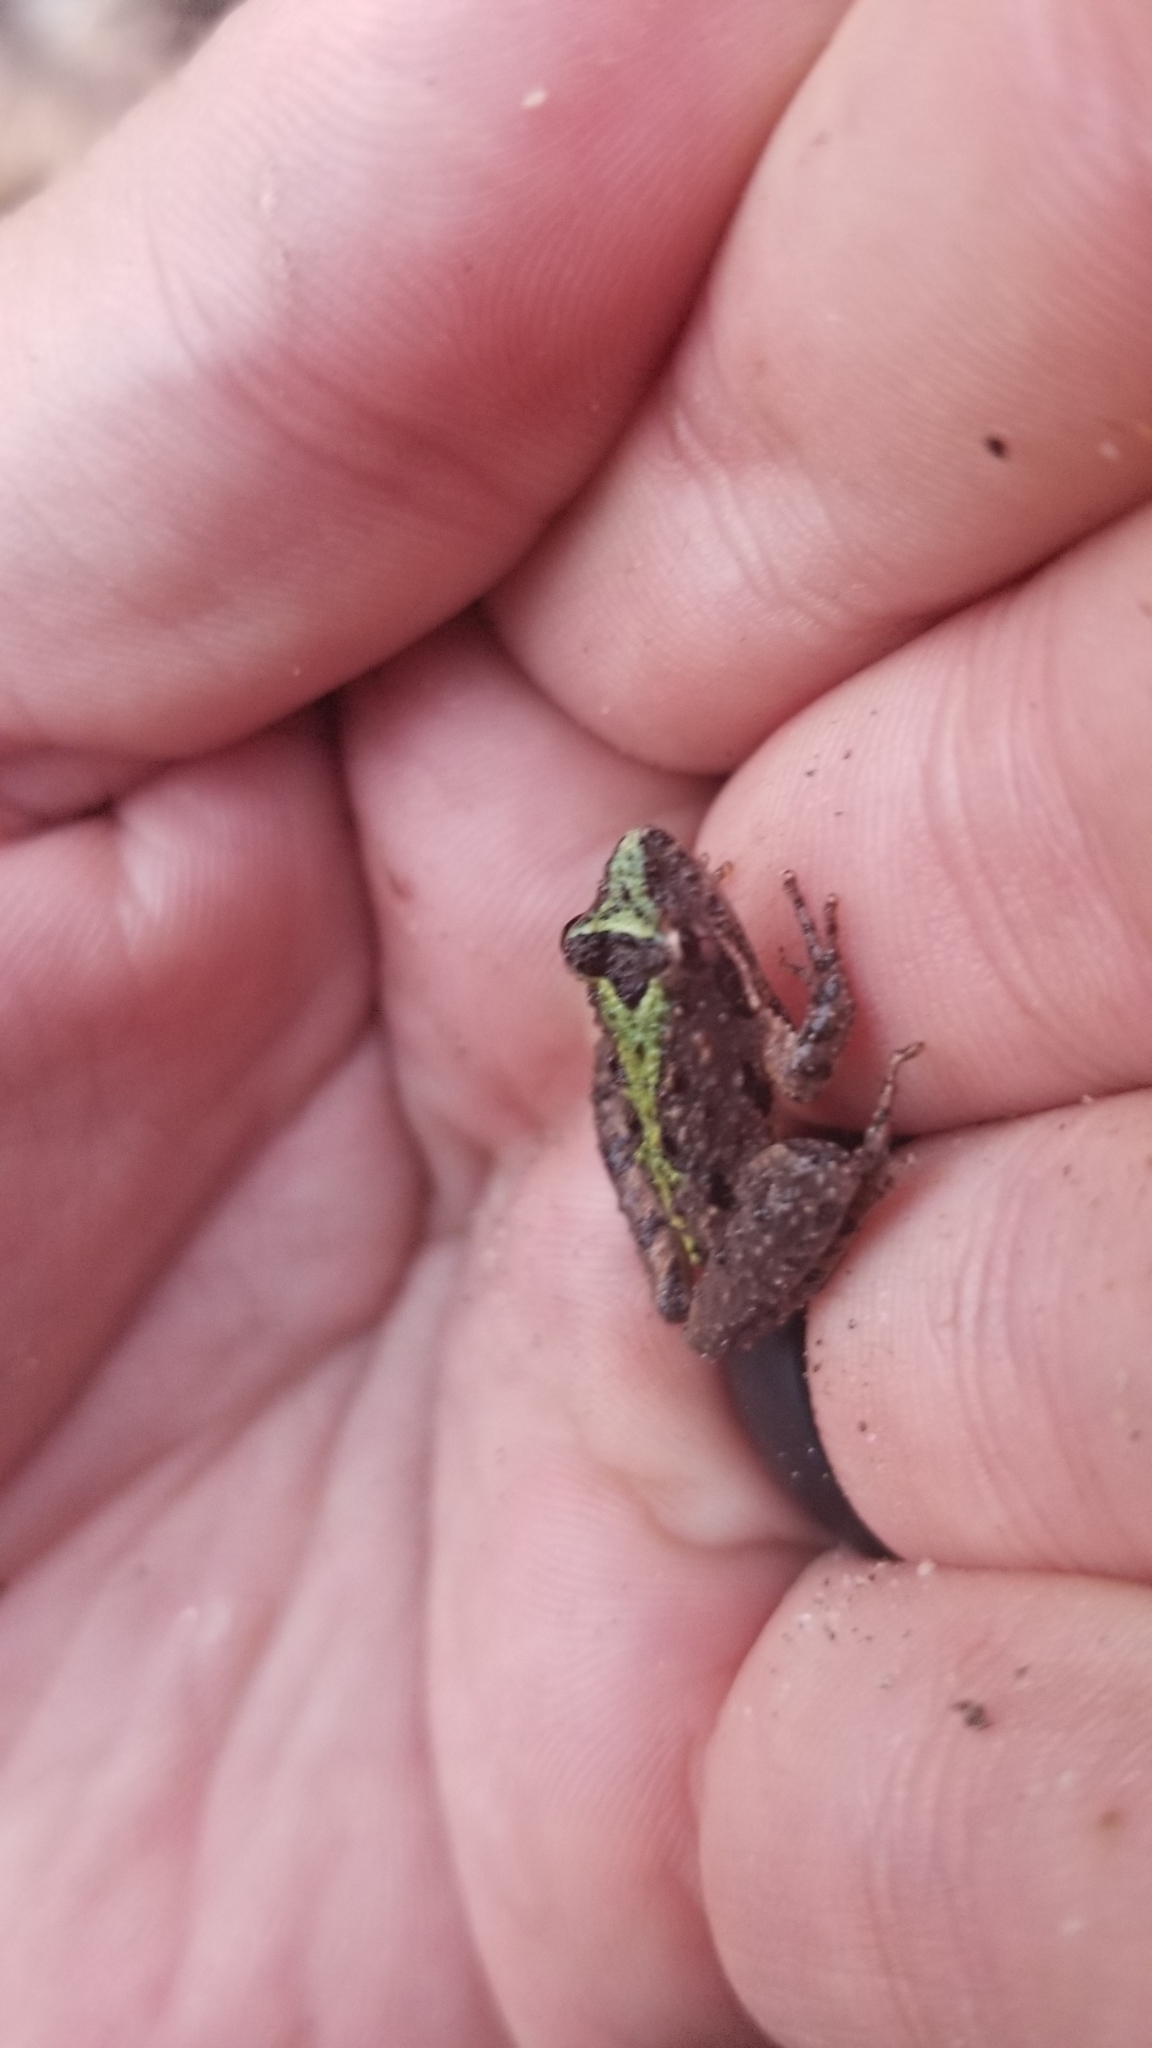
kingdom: Animalia
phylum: Chordata
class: Amphibia
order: Anura
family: Hylidae
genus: Acris
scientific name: Acris gryllus
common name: Southern cricket frog
